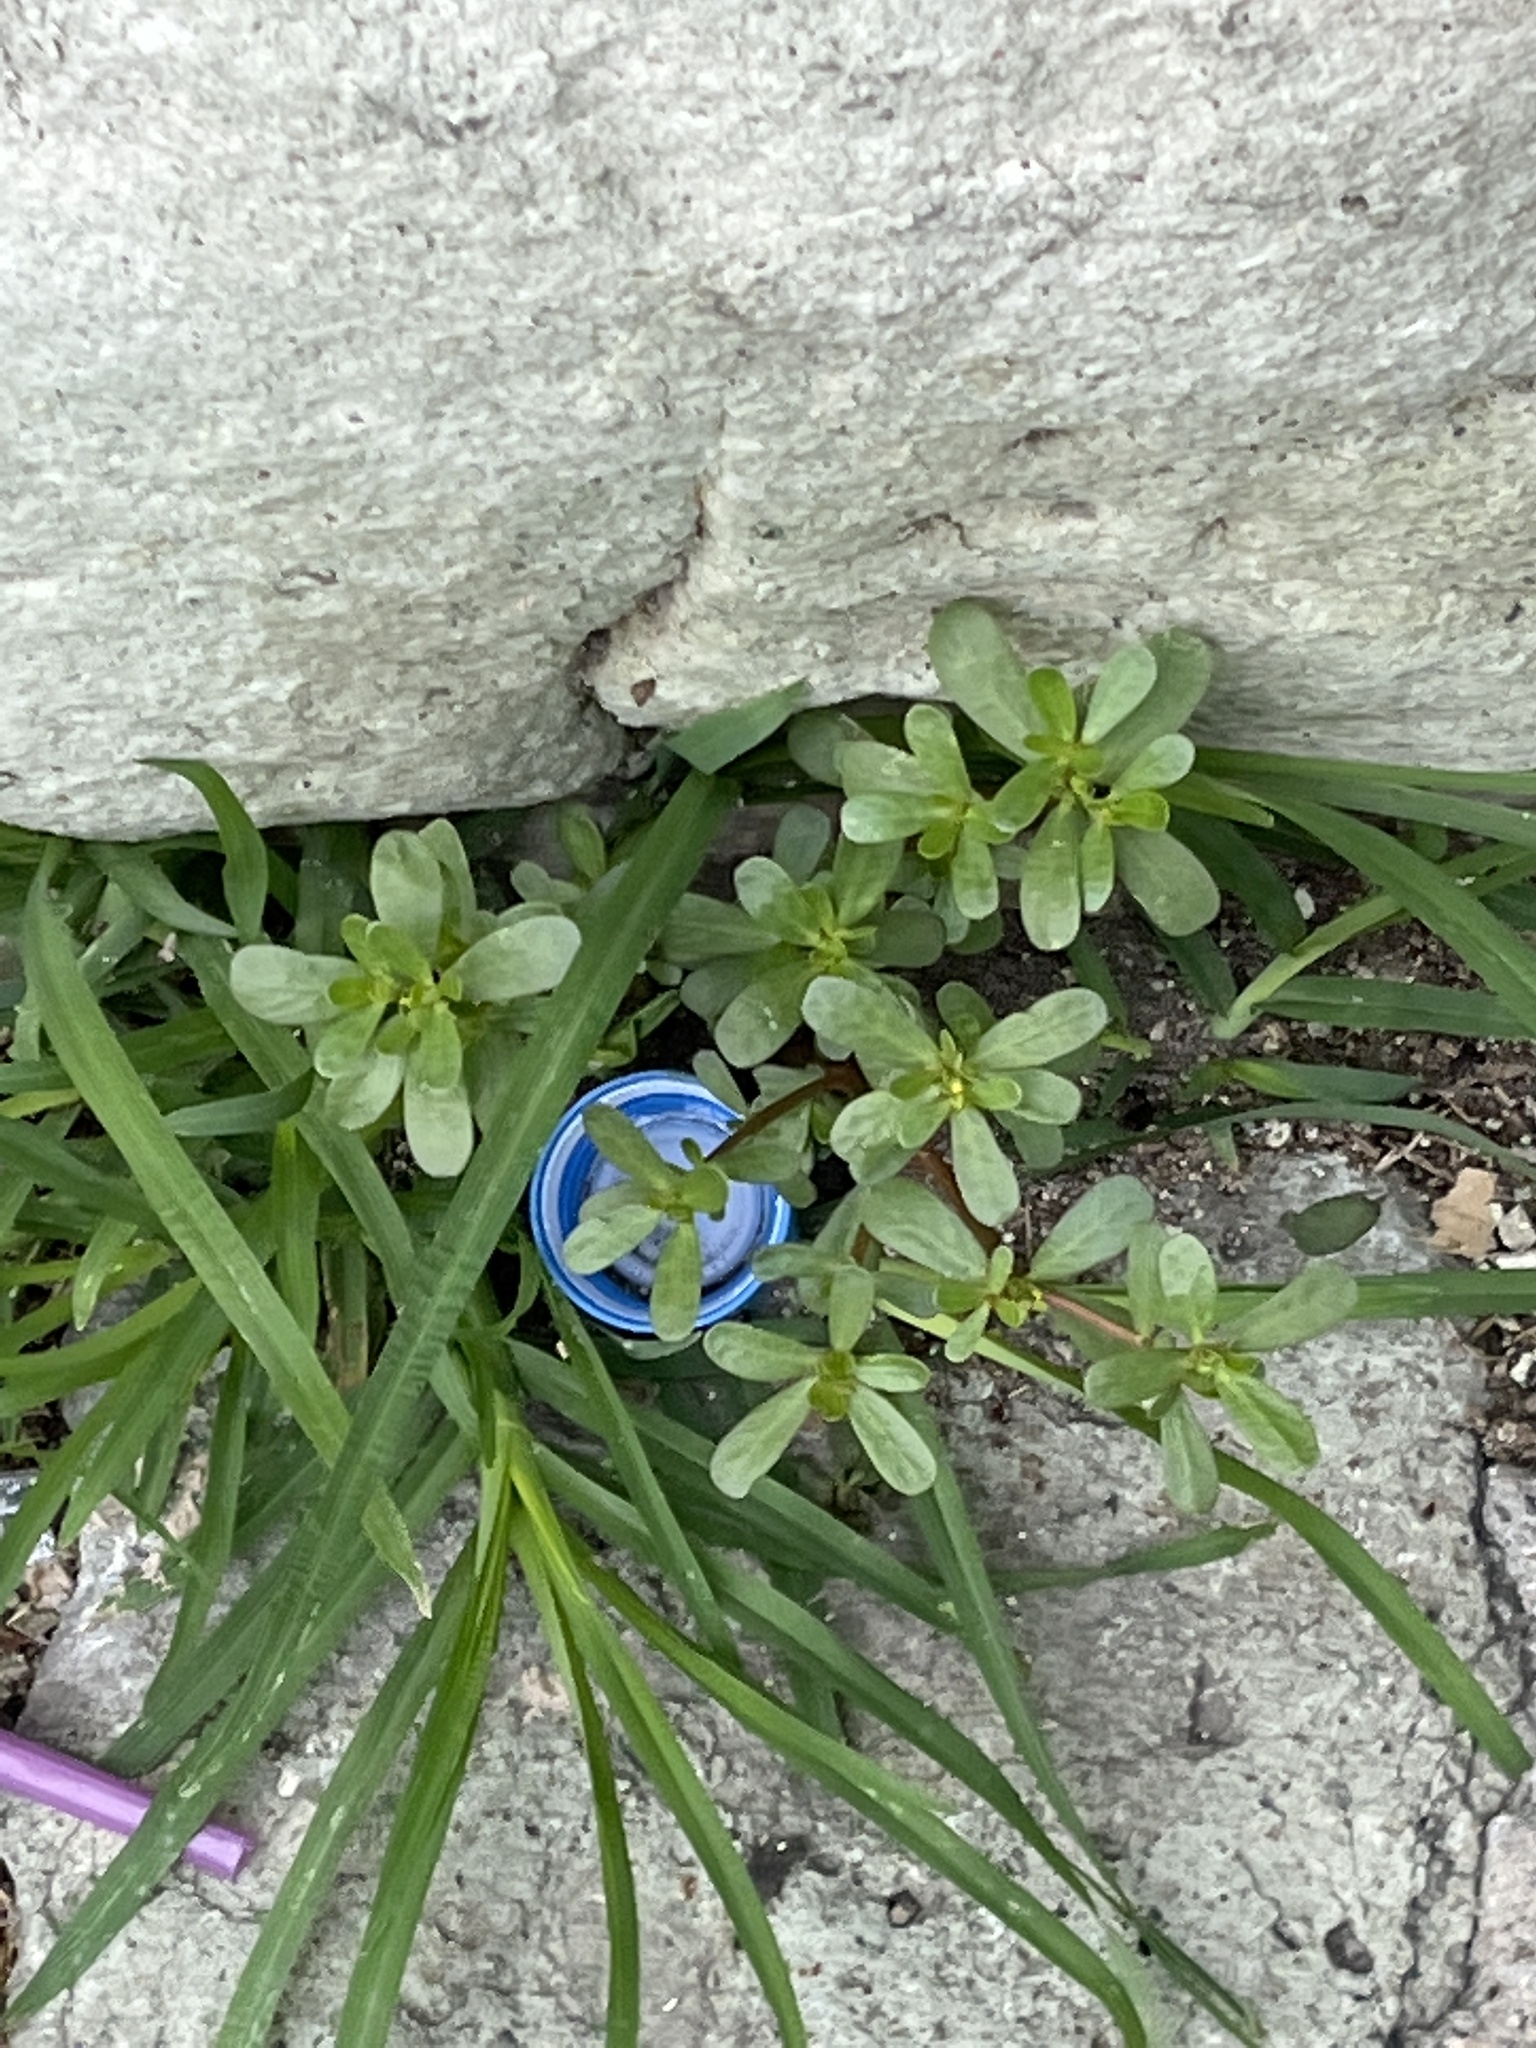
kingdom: Plantae
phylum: Tracheophyta
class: Magnoliopsida
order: Caryophyllales
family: Portulacaceae
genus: Portulaca
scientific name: Portulaca oleracea
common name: Common purslane
